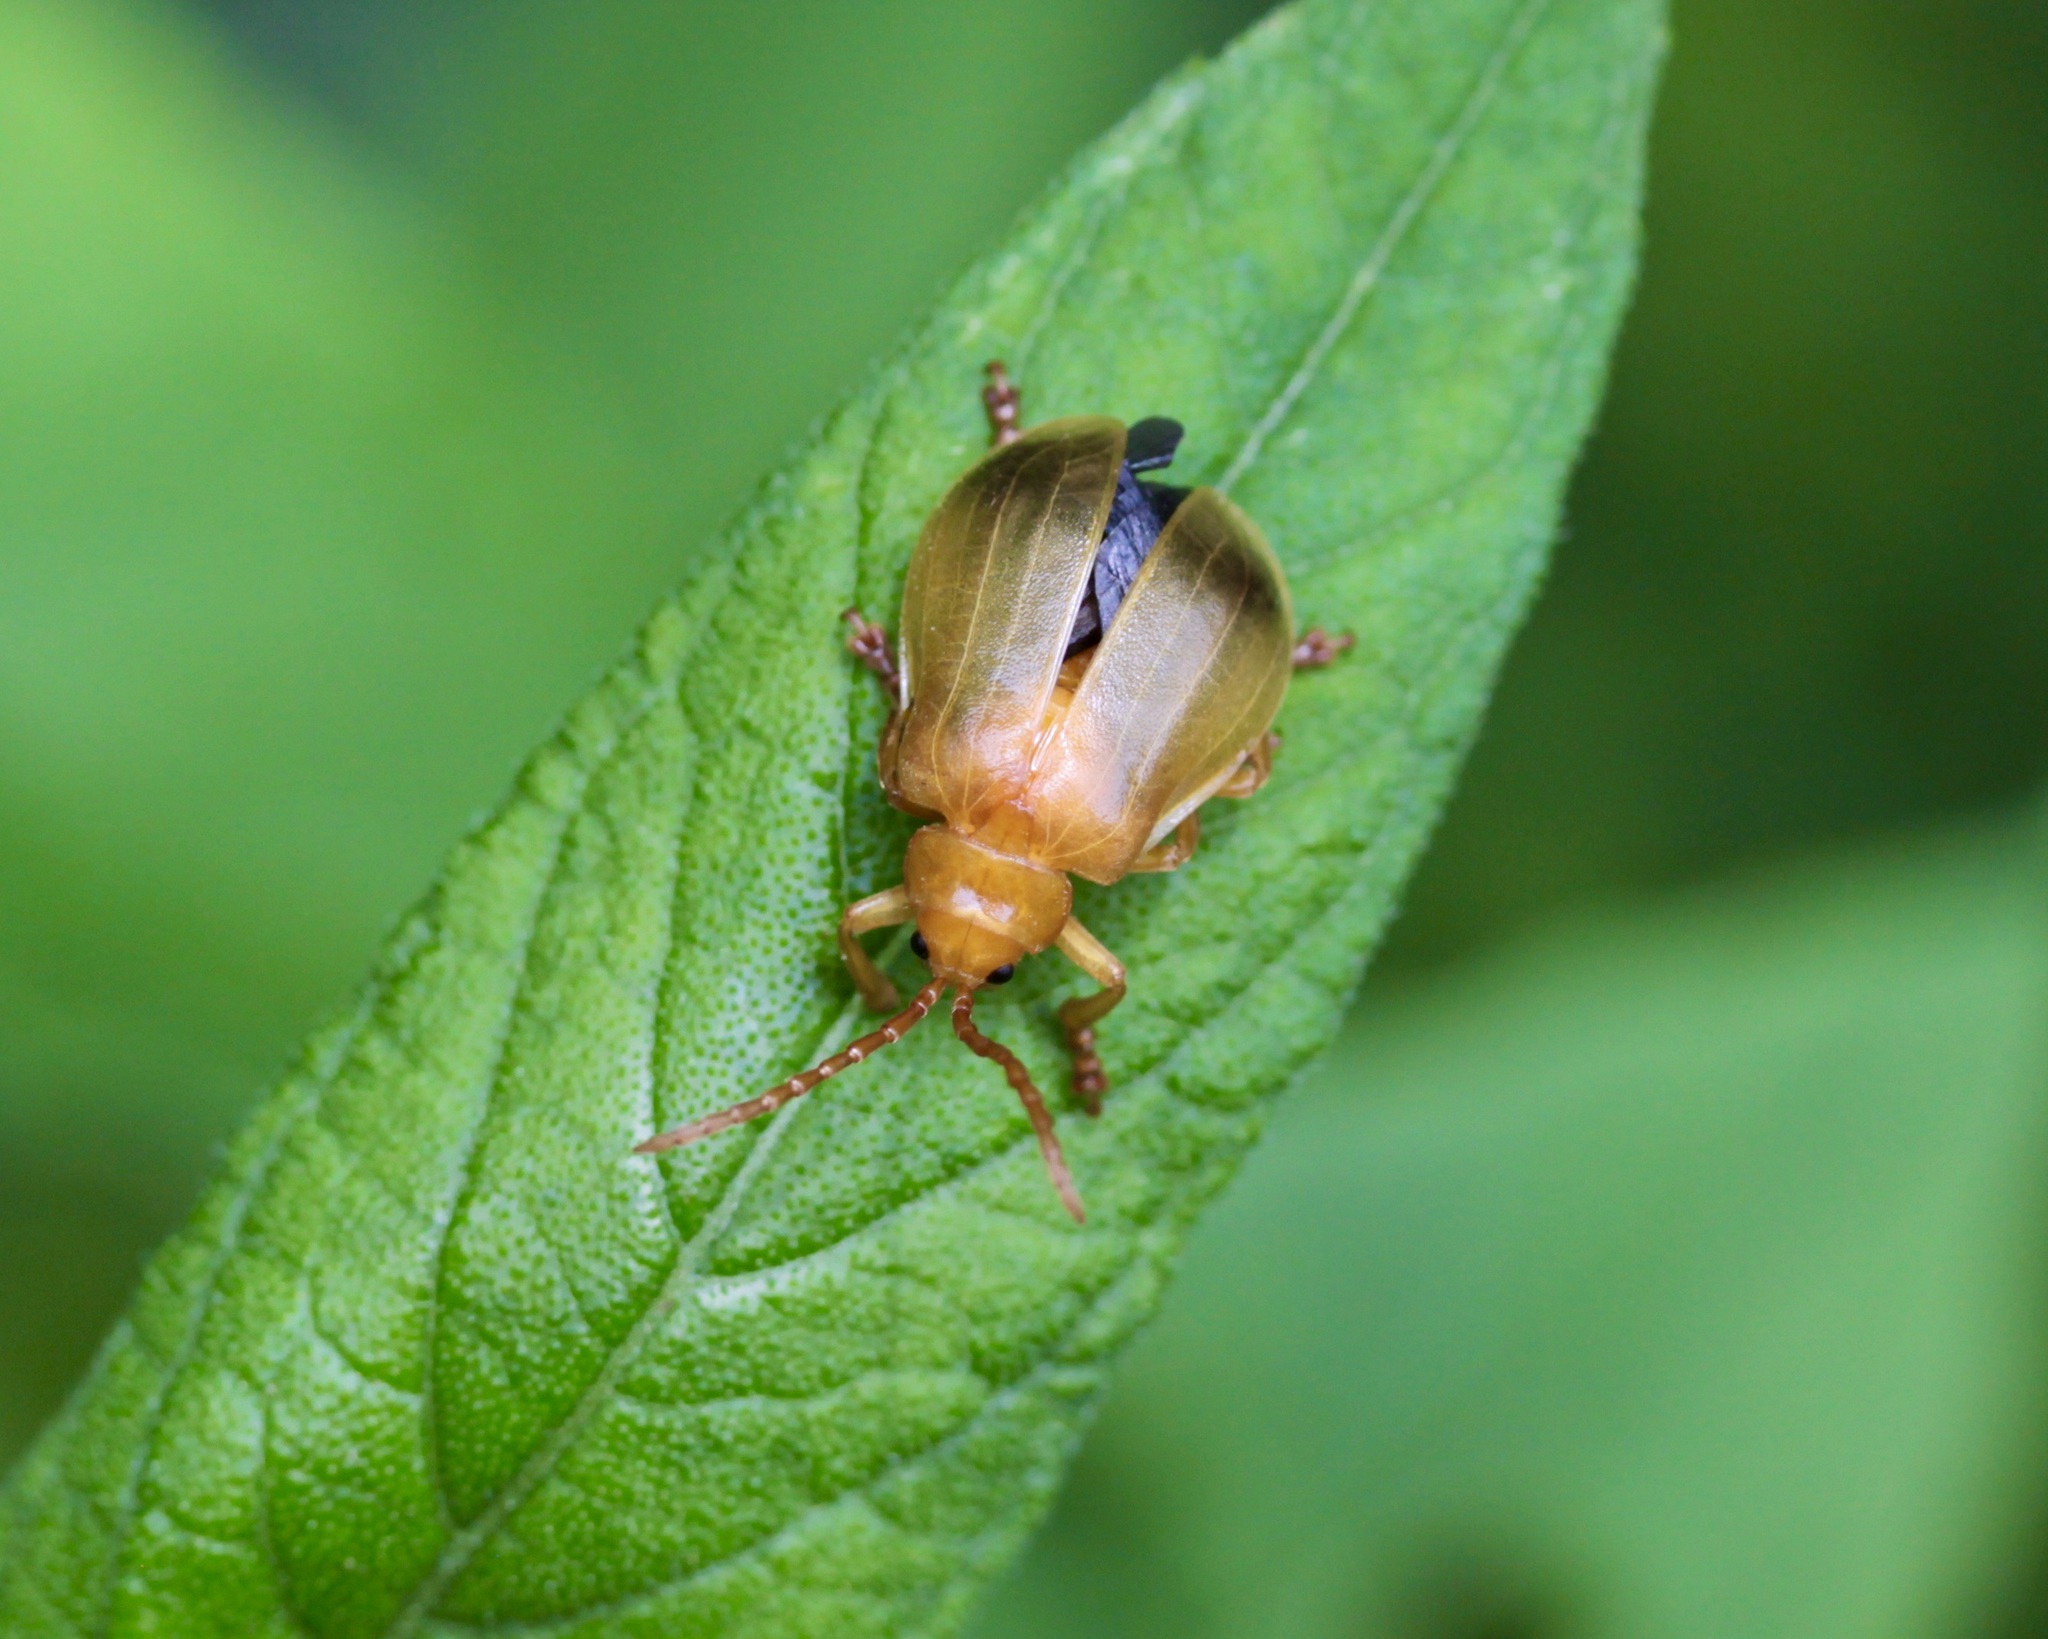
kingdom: Animalia
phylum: Arthropoda
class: Insecta
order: Coleoptera
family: Chrysomelidae
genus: Monocesta
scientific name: Monocesta coryli
